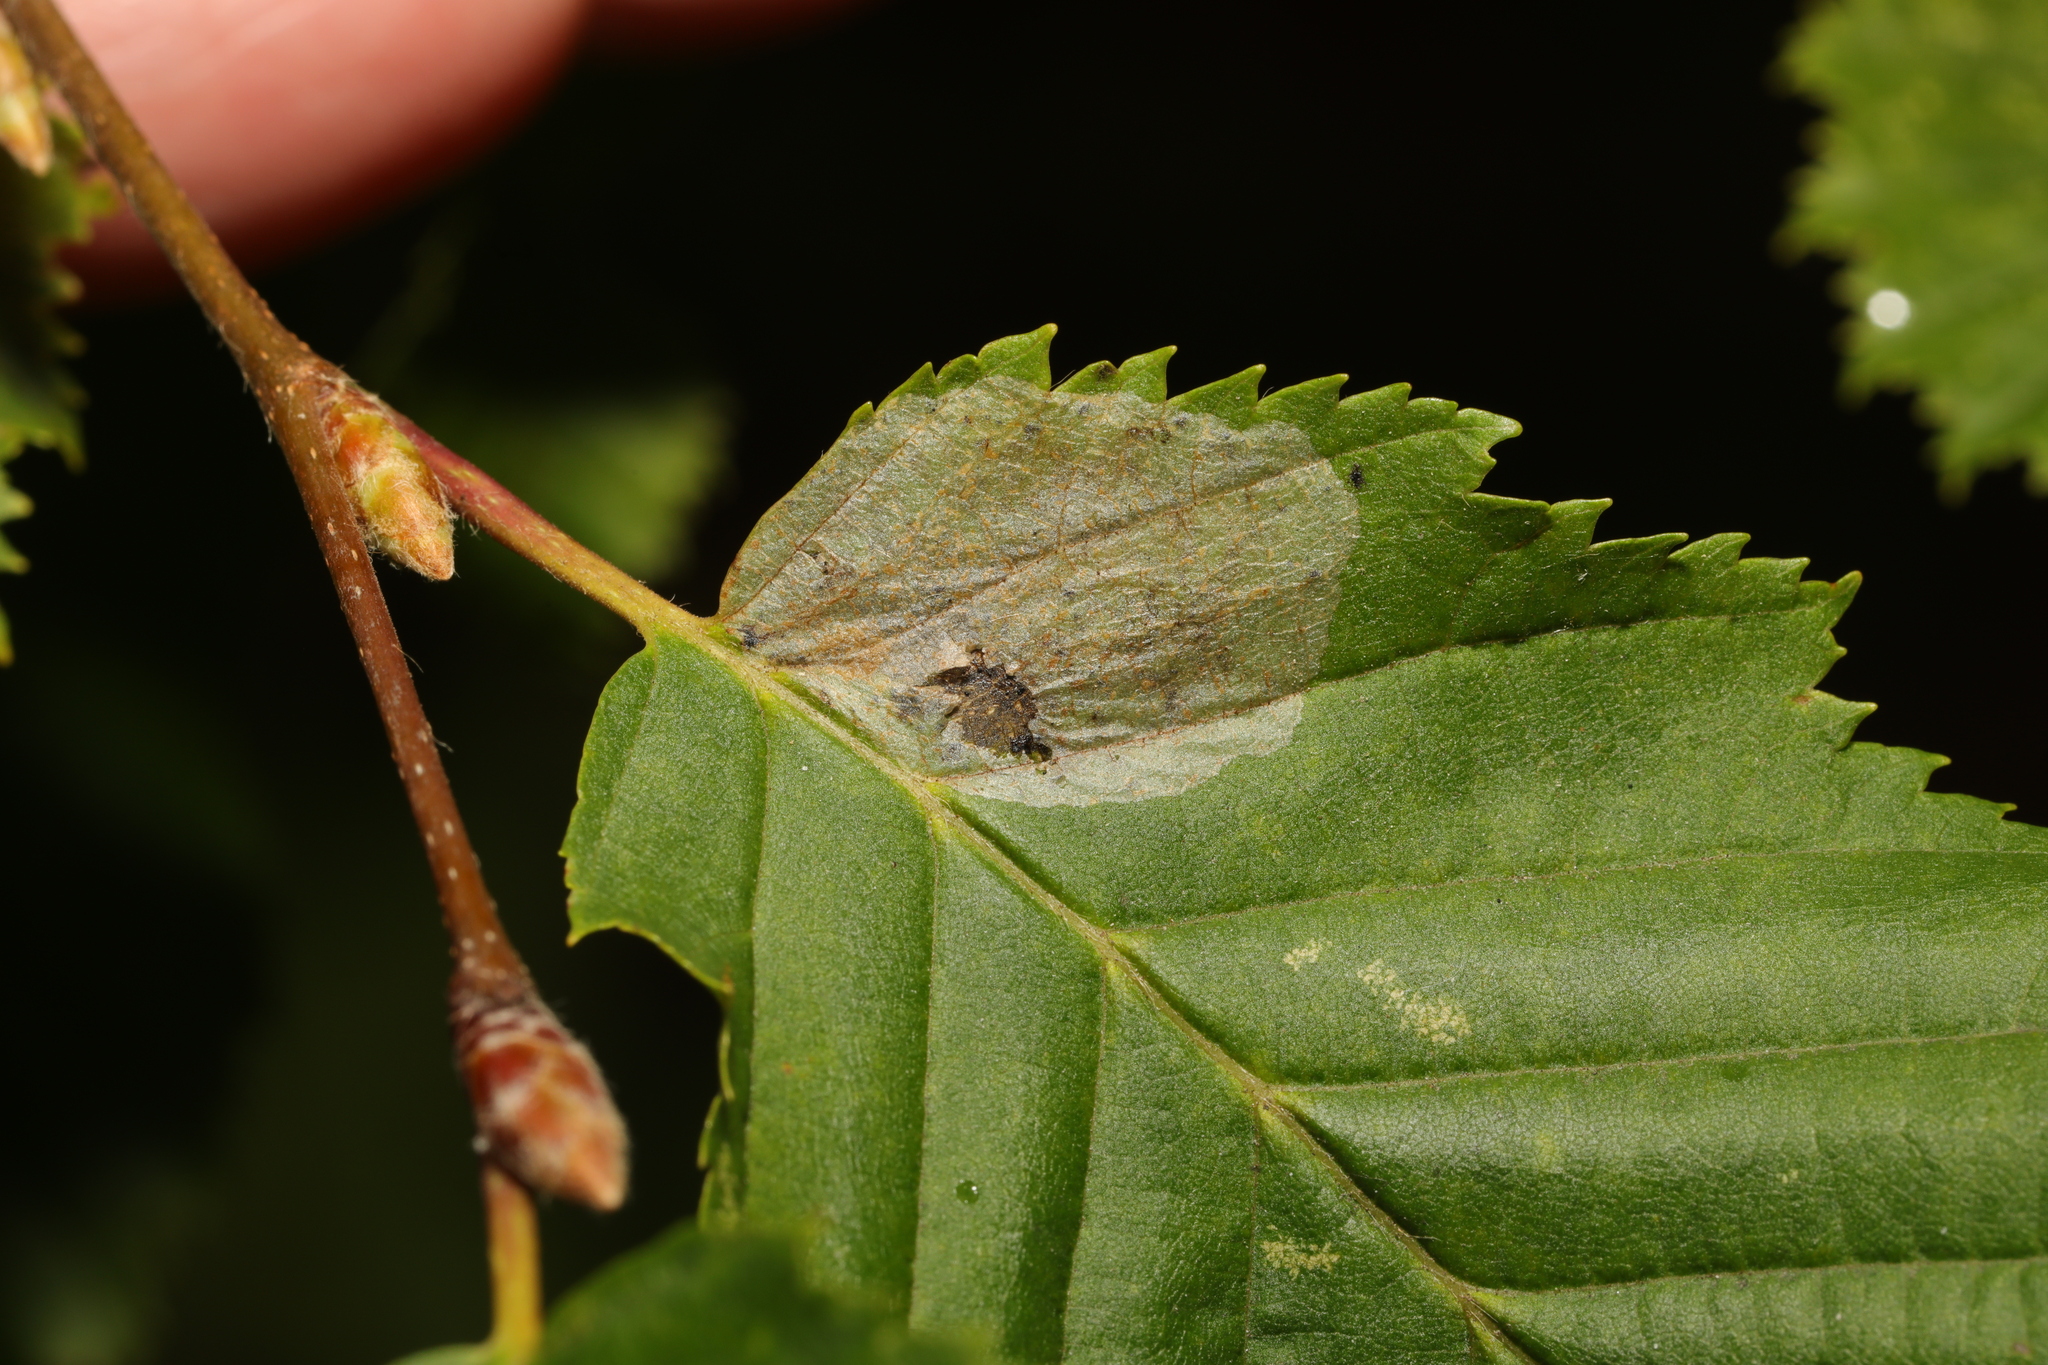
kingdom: Animalia
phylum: Arthropoda
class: Insecta
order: Lepidoptera
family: Gracillariidae
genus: Phyllonorycter
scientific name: Phyllonorycter esperella
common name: Dark hornbeam midget
